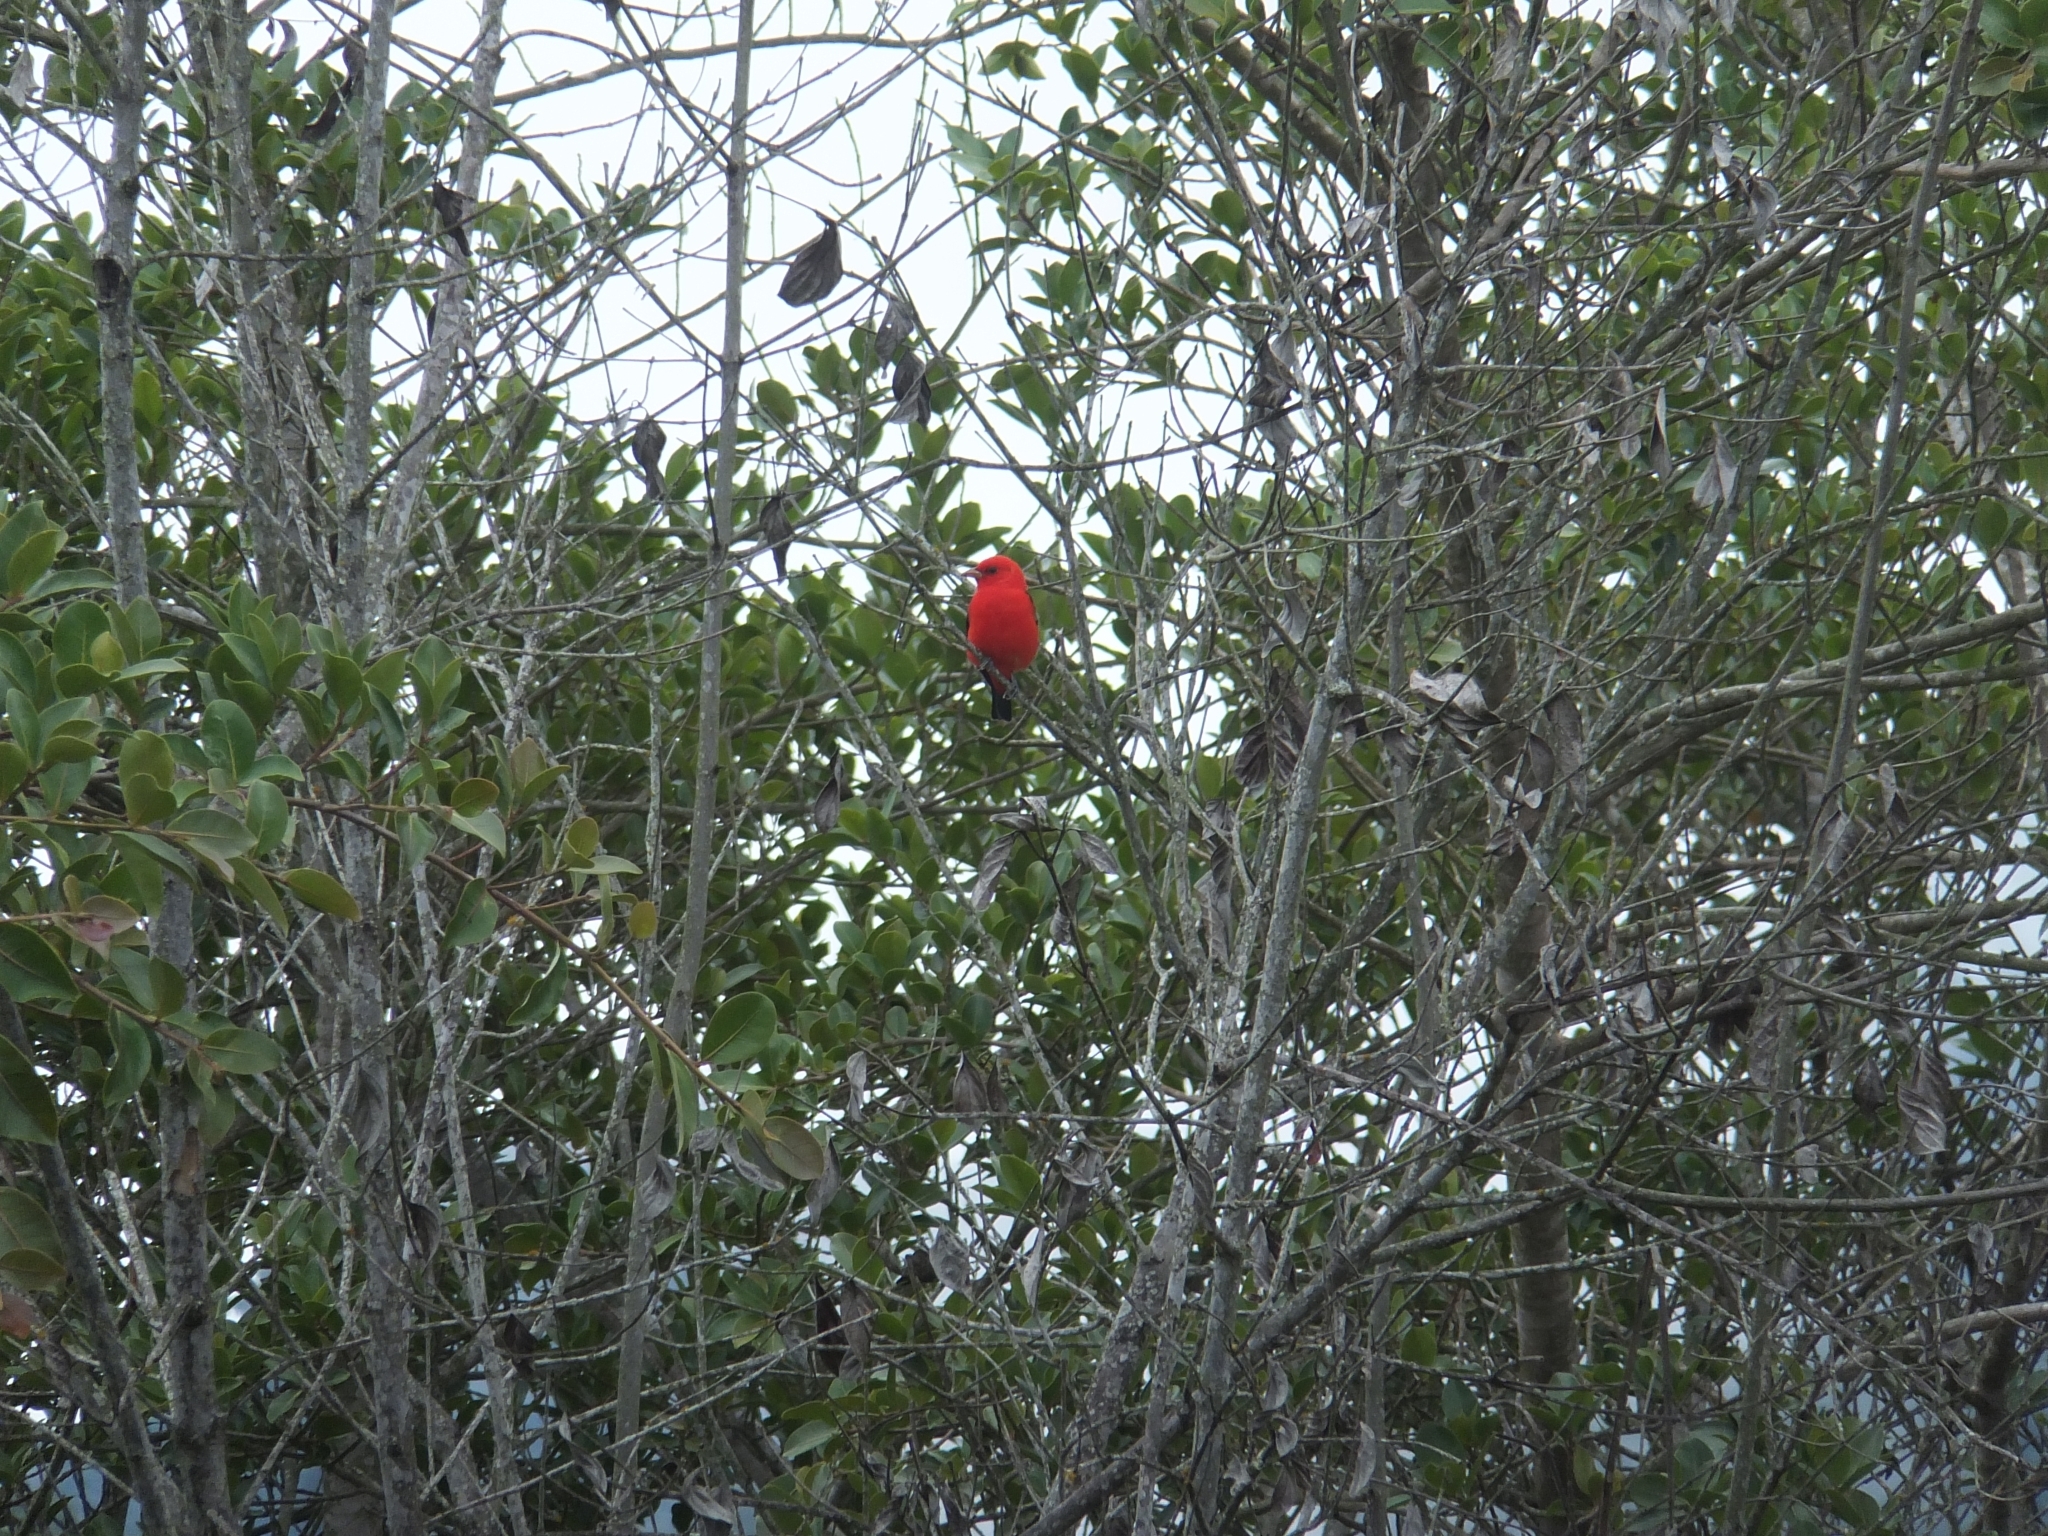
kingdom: Animalia
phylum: Chordata
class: Aves
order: Passeriformes
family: Cardinalidae
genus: Piranga
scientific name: Piranga olivacea
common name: Scarlet tanager
